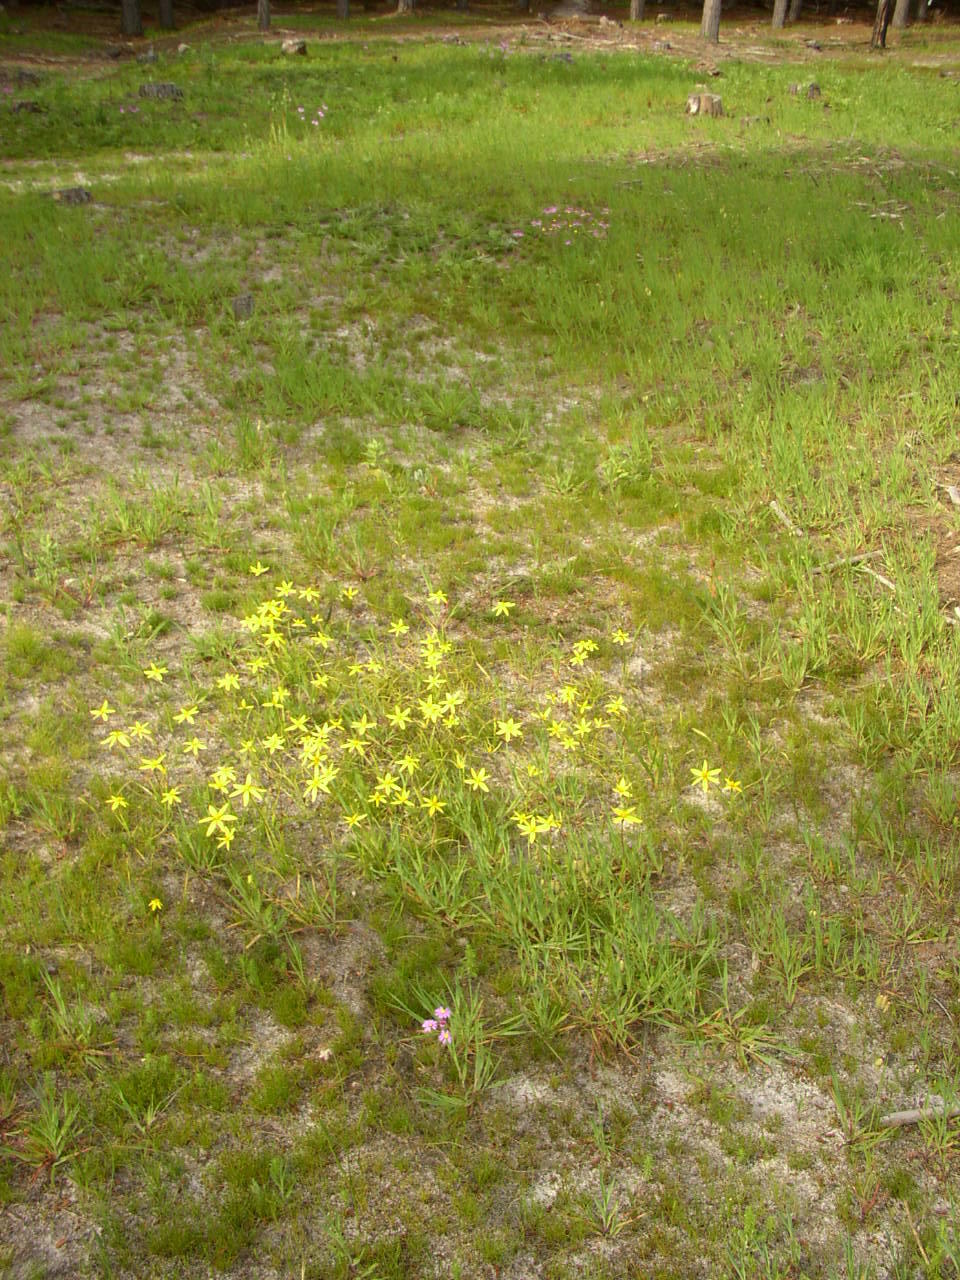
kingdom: Plantae
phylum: Tracheophyta
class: Liliopsida
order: Asparagales
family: Hypoxidaceae
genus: Pauridia
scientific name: Pauridia capensis
